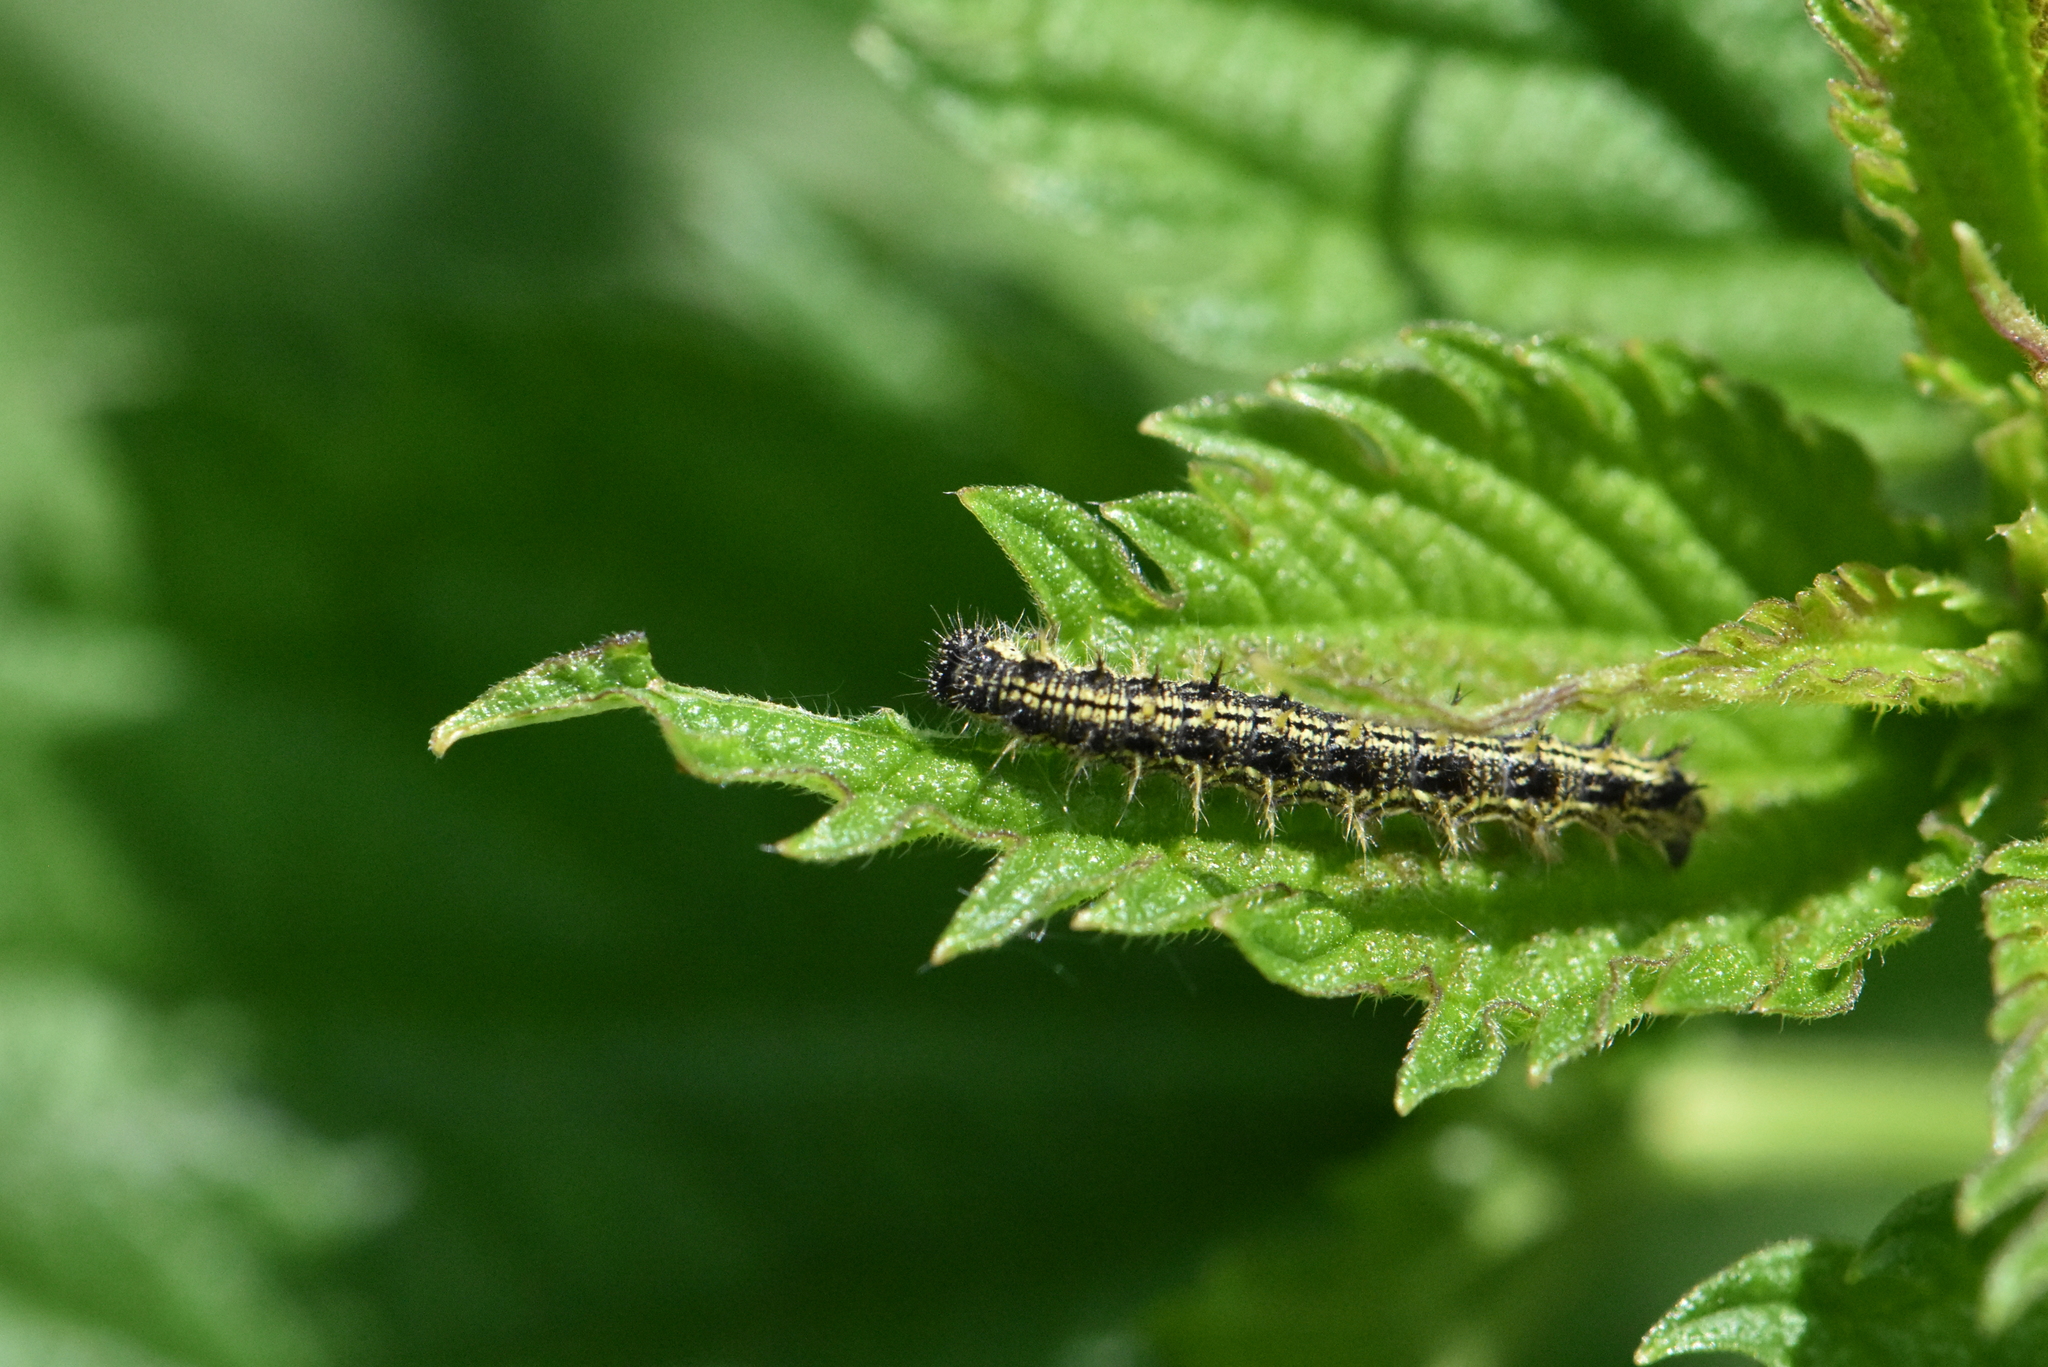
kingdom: Animalia
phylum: Arthropoda
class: Insecta
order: Lepidoptera
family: Nymphalidae
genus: Aglais
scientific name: Aglais urticae
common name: Small tortoiseshell
